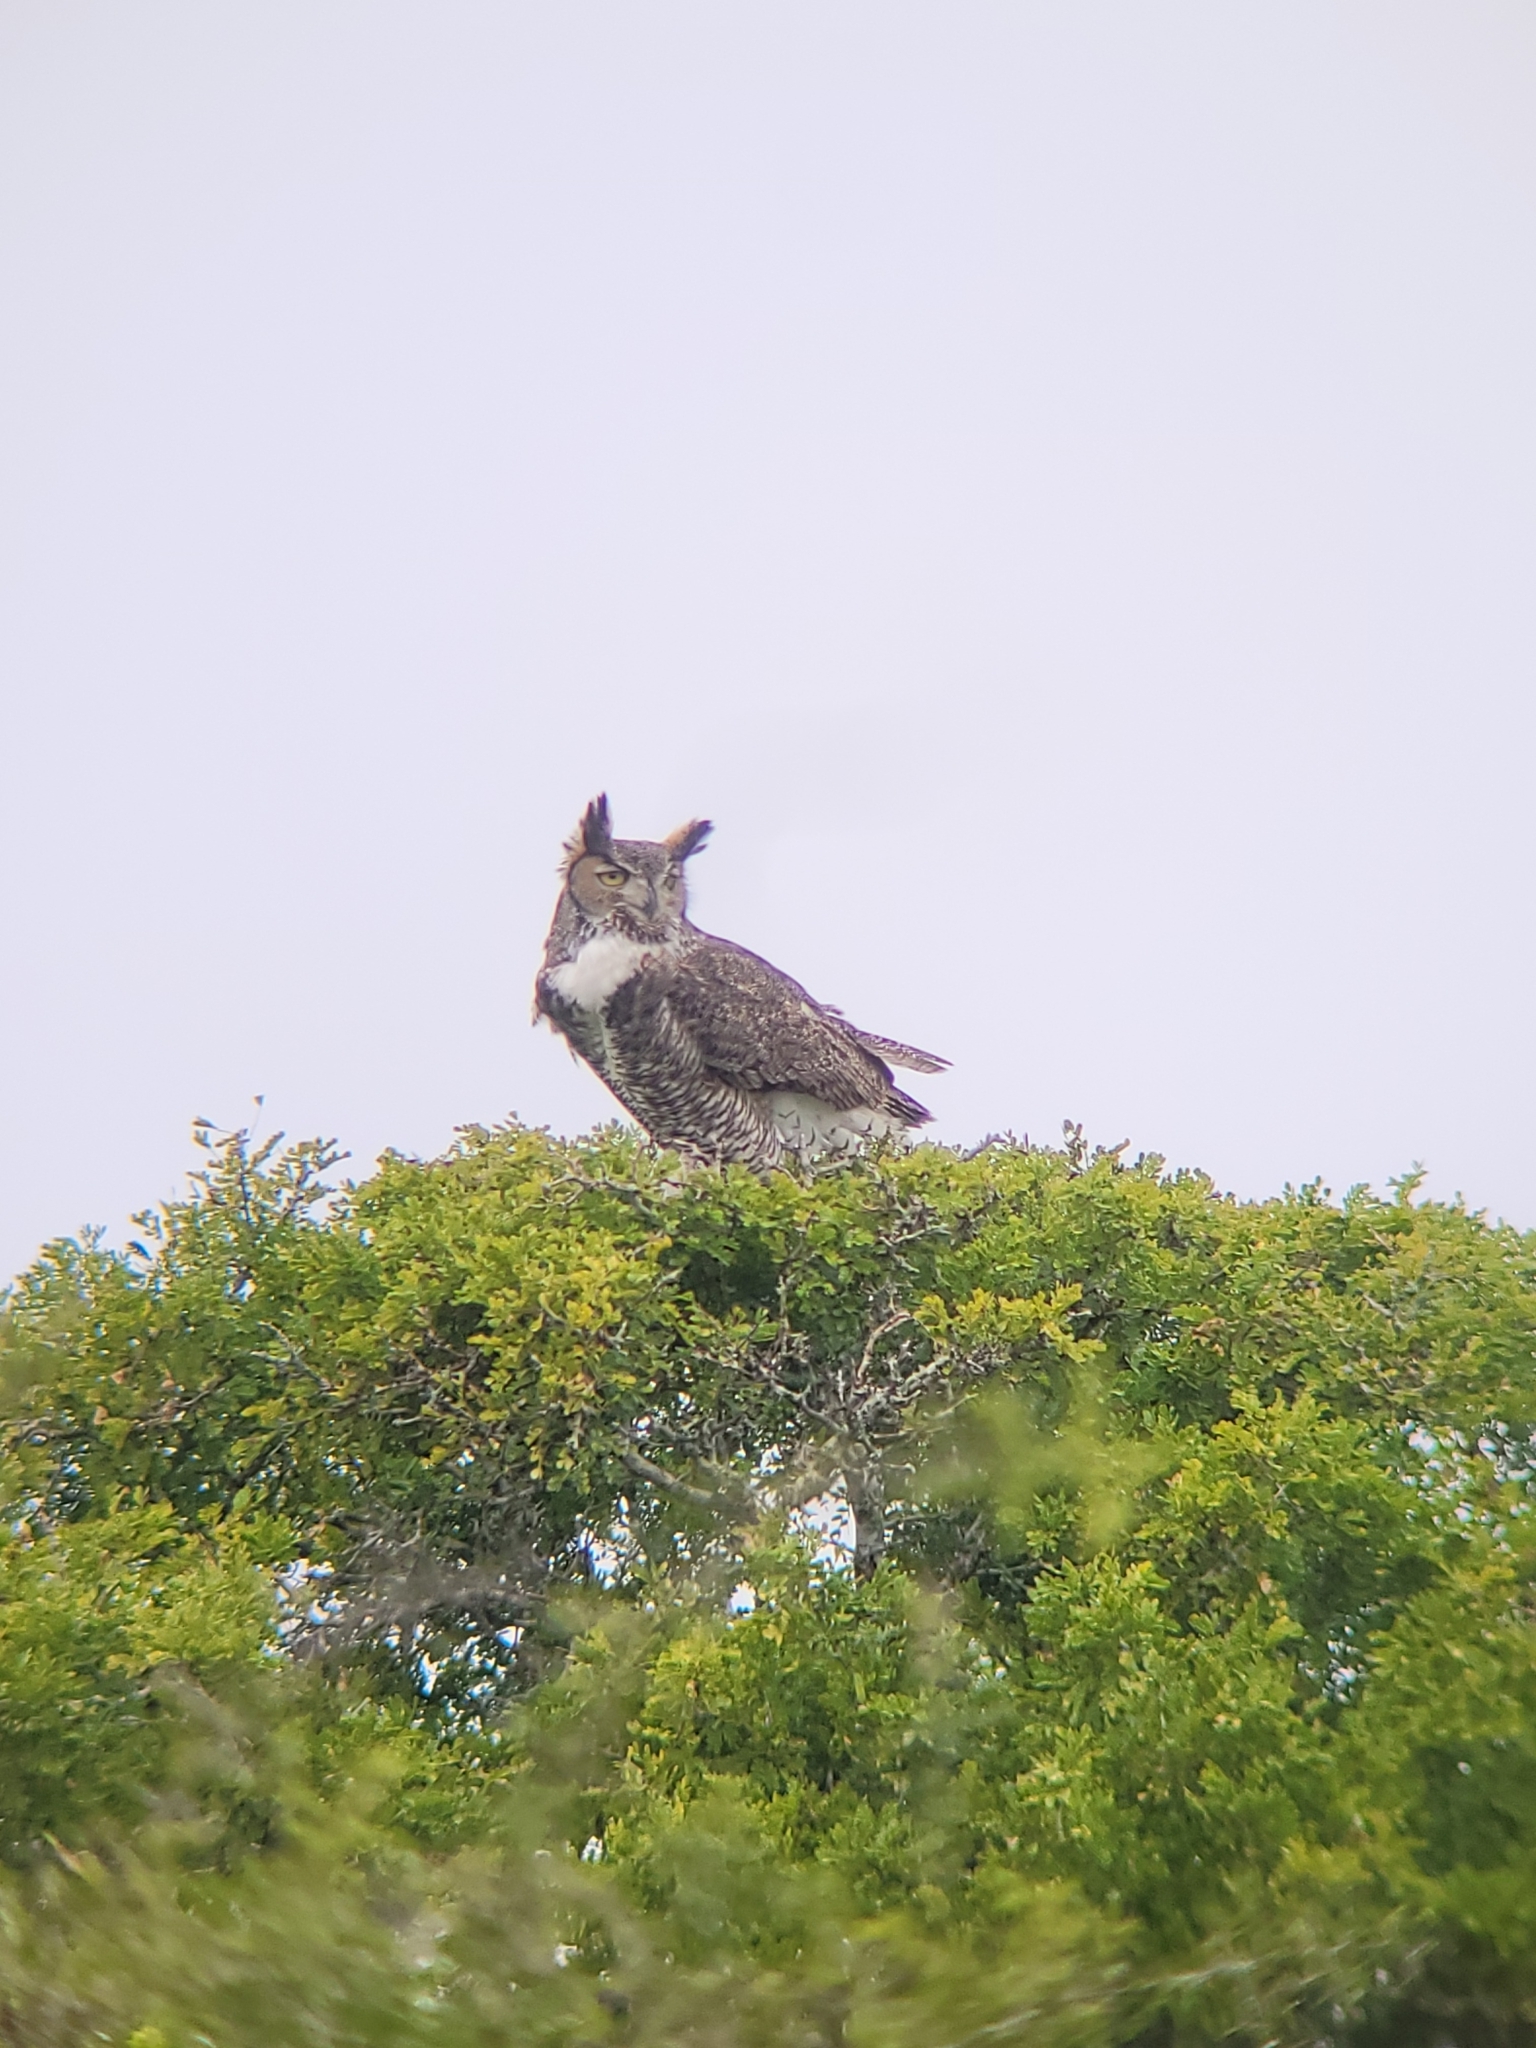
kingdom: Animalia
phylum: Chordata
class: Aves
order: Strigiformes
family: Strigidae
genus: Bubo
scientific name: Bubo virginianus
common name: Great horned owl
